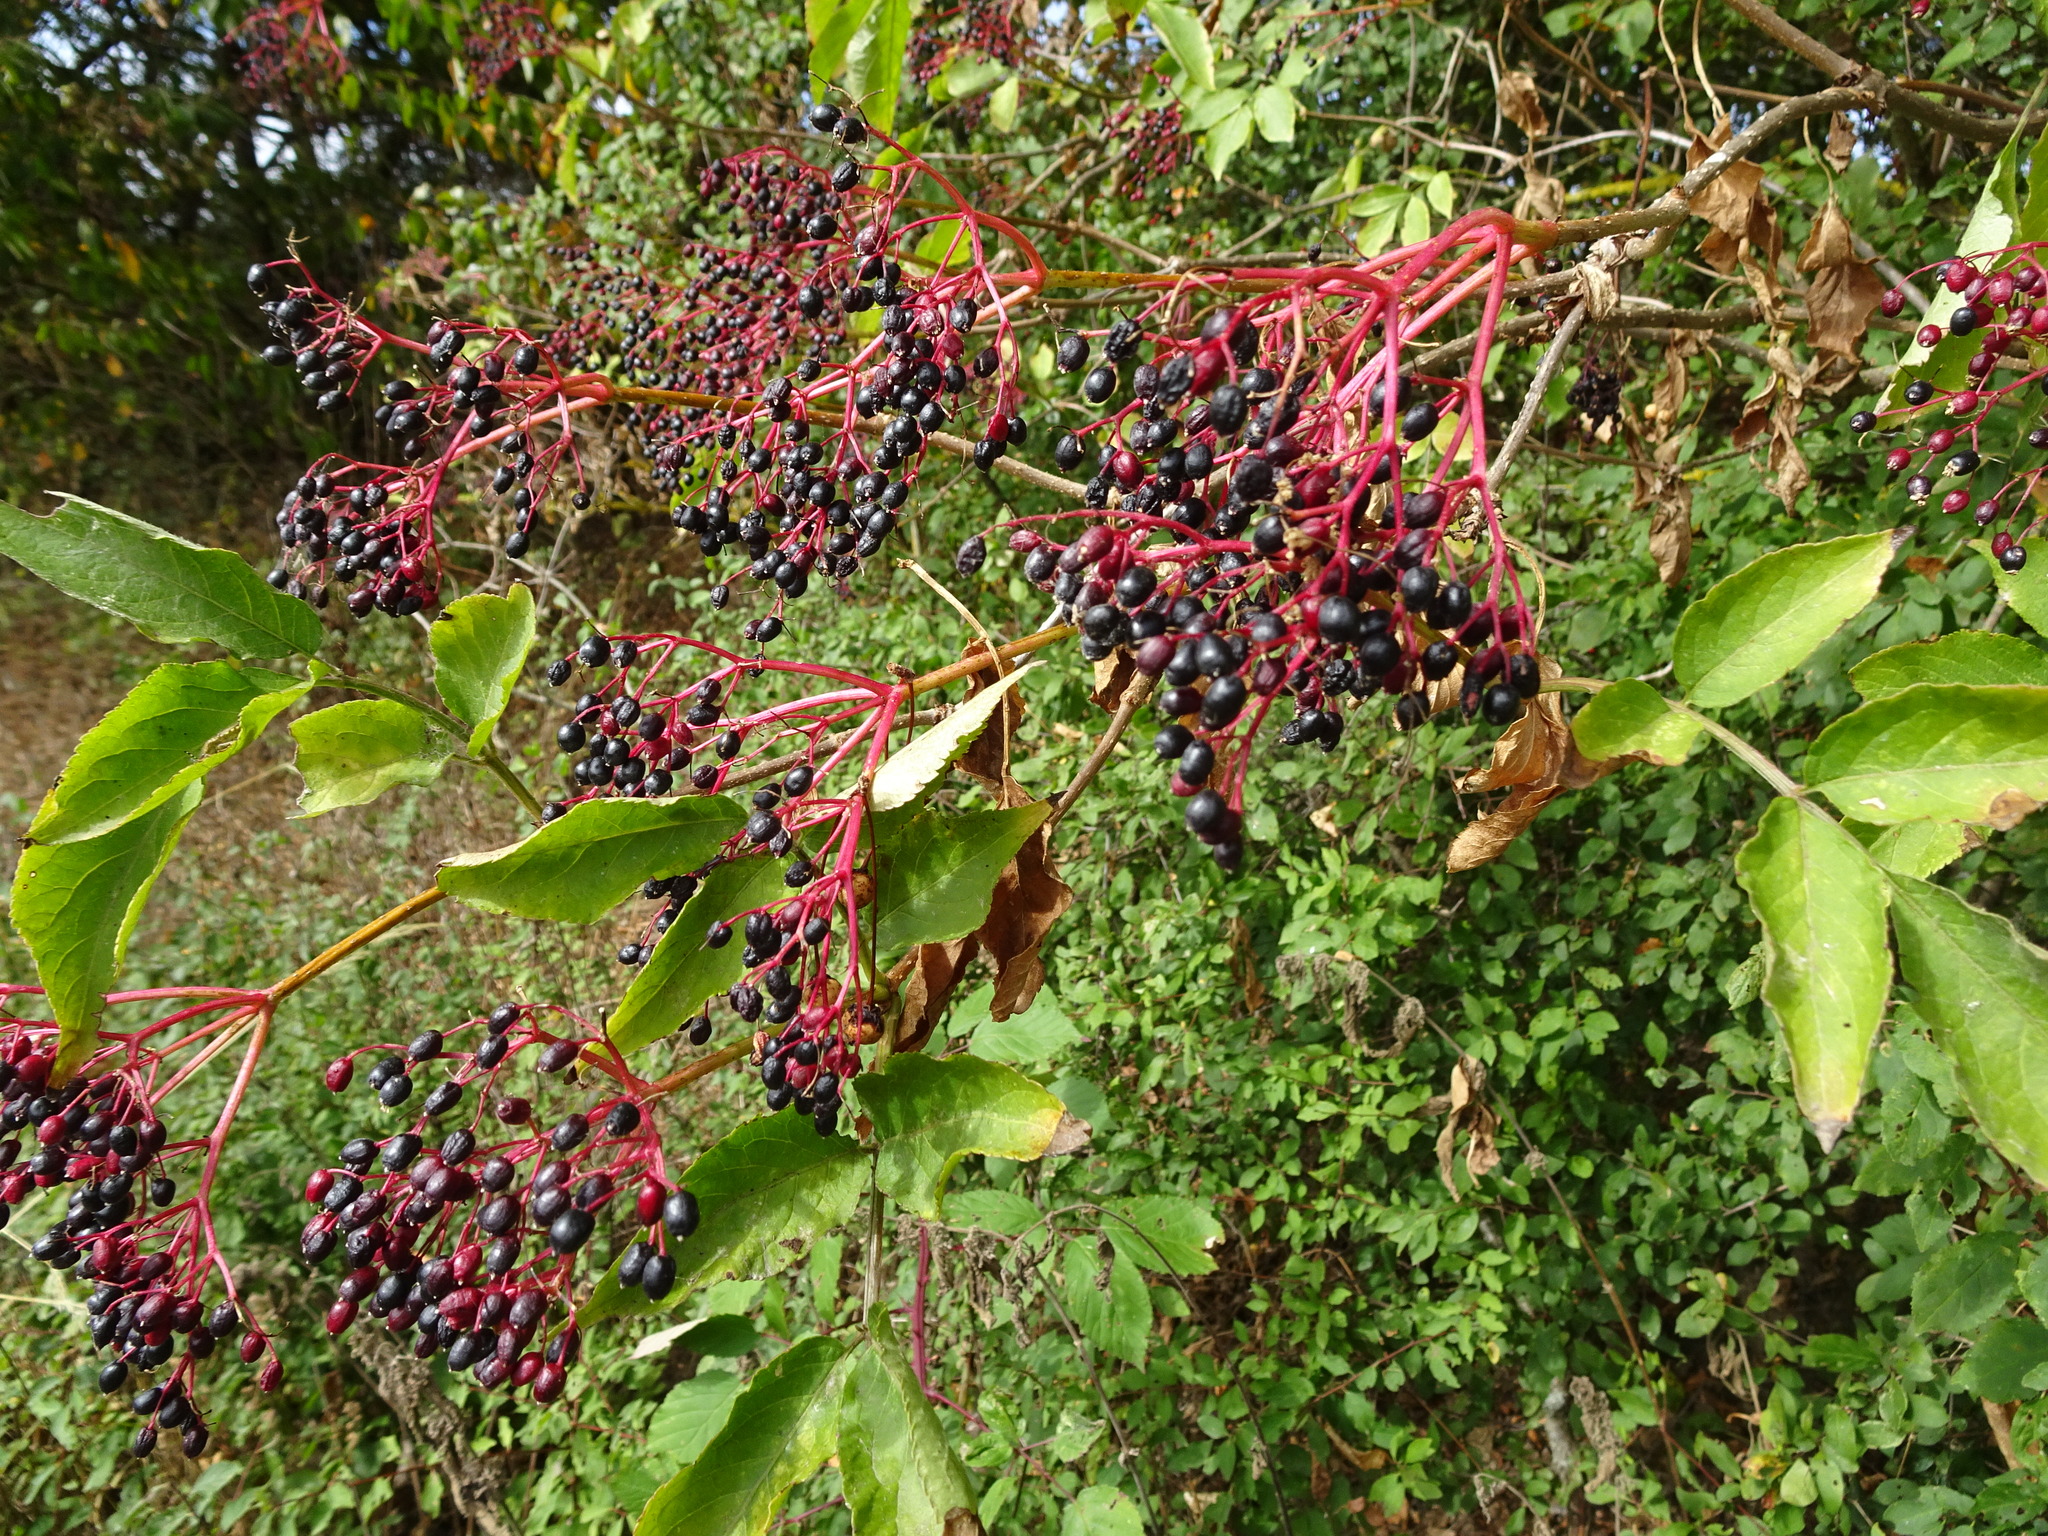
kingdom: Plantae
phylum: Tracheophyta
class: Magnoliopsida
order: Dipsacales
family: Viburnaceae
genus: Sambucus
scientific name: Sambucus nigra
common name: Elder
